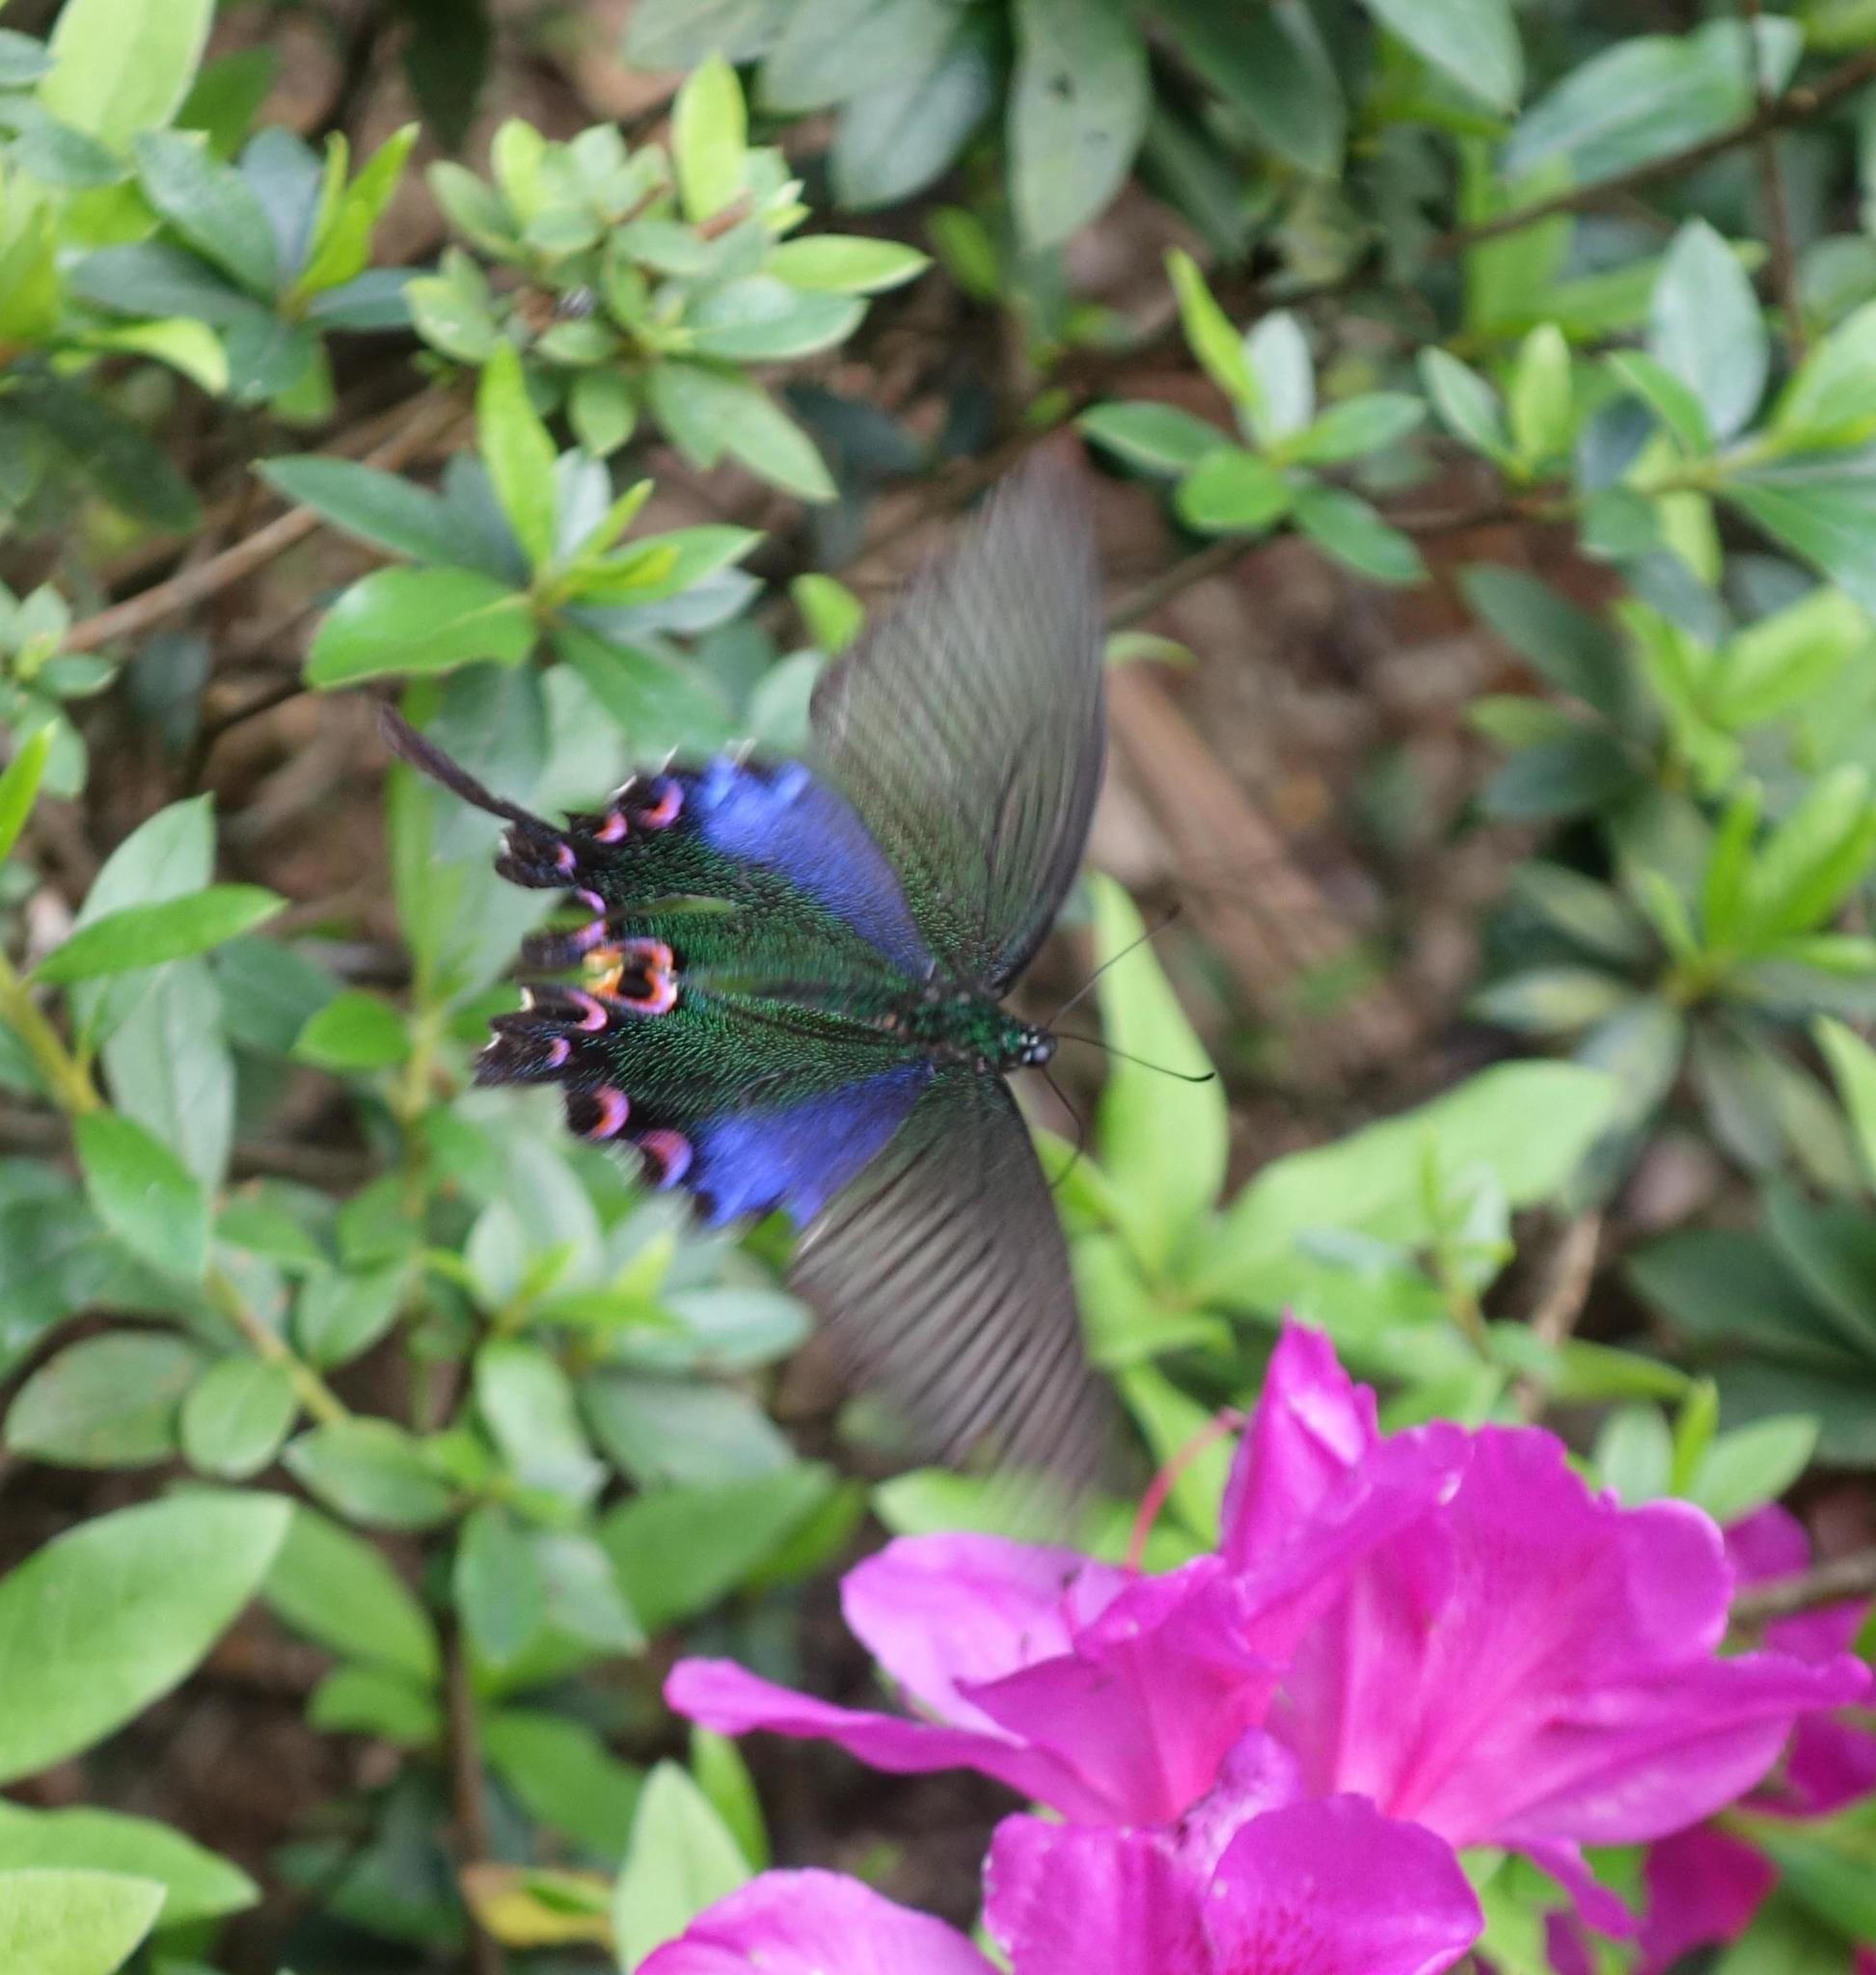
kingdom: Animalia
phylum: Arthropoda
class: Insecta
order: Lepidoptera
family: Papilionidae
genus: Papilio
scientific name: Papilio bianor
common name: Common peacock
